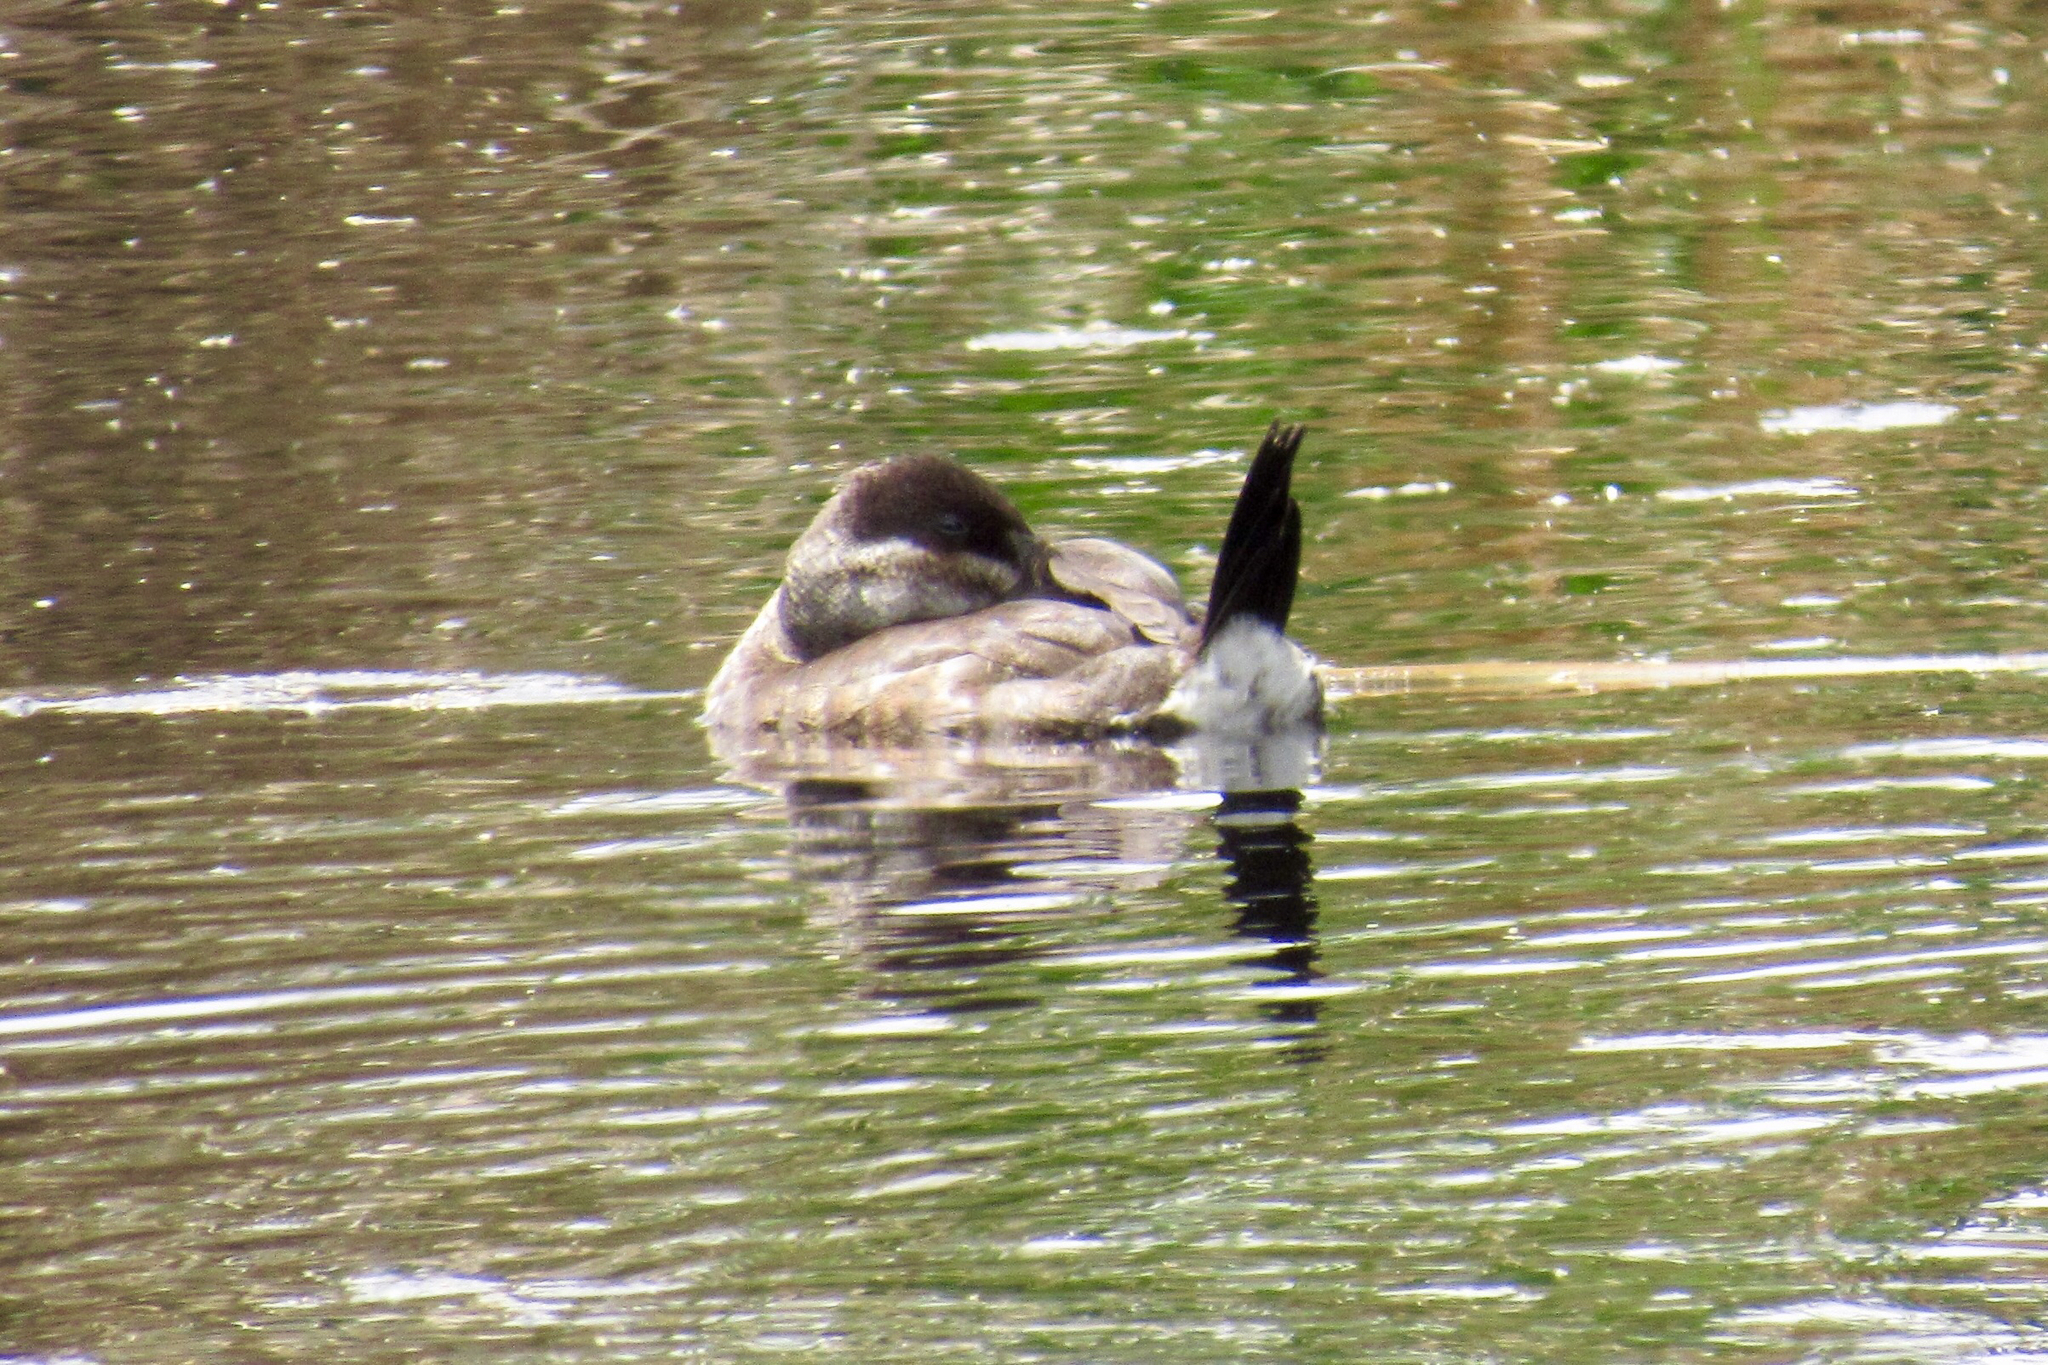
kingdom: Animalia
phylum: Chordata
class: Aves
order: Anseriformes
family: Anatidae
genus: Oxyura
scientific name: Oxyura jamaicensis
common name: Ruddy duck
